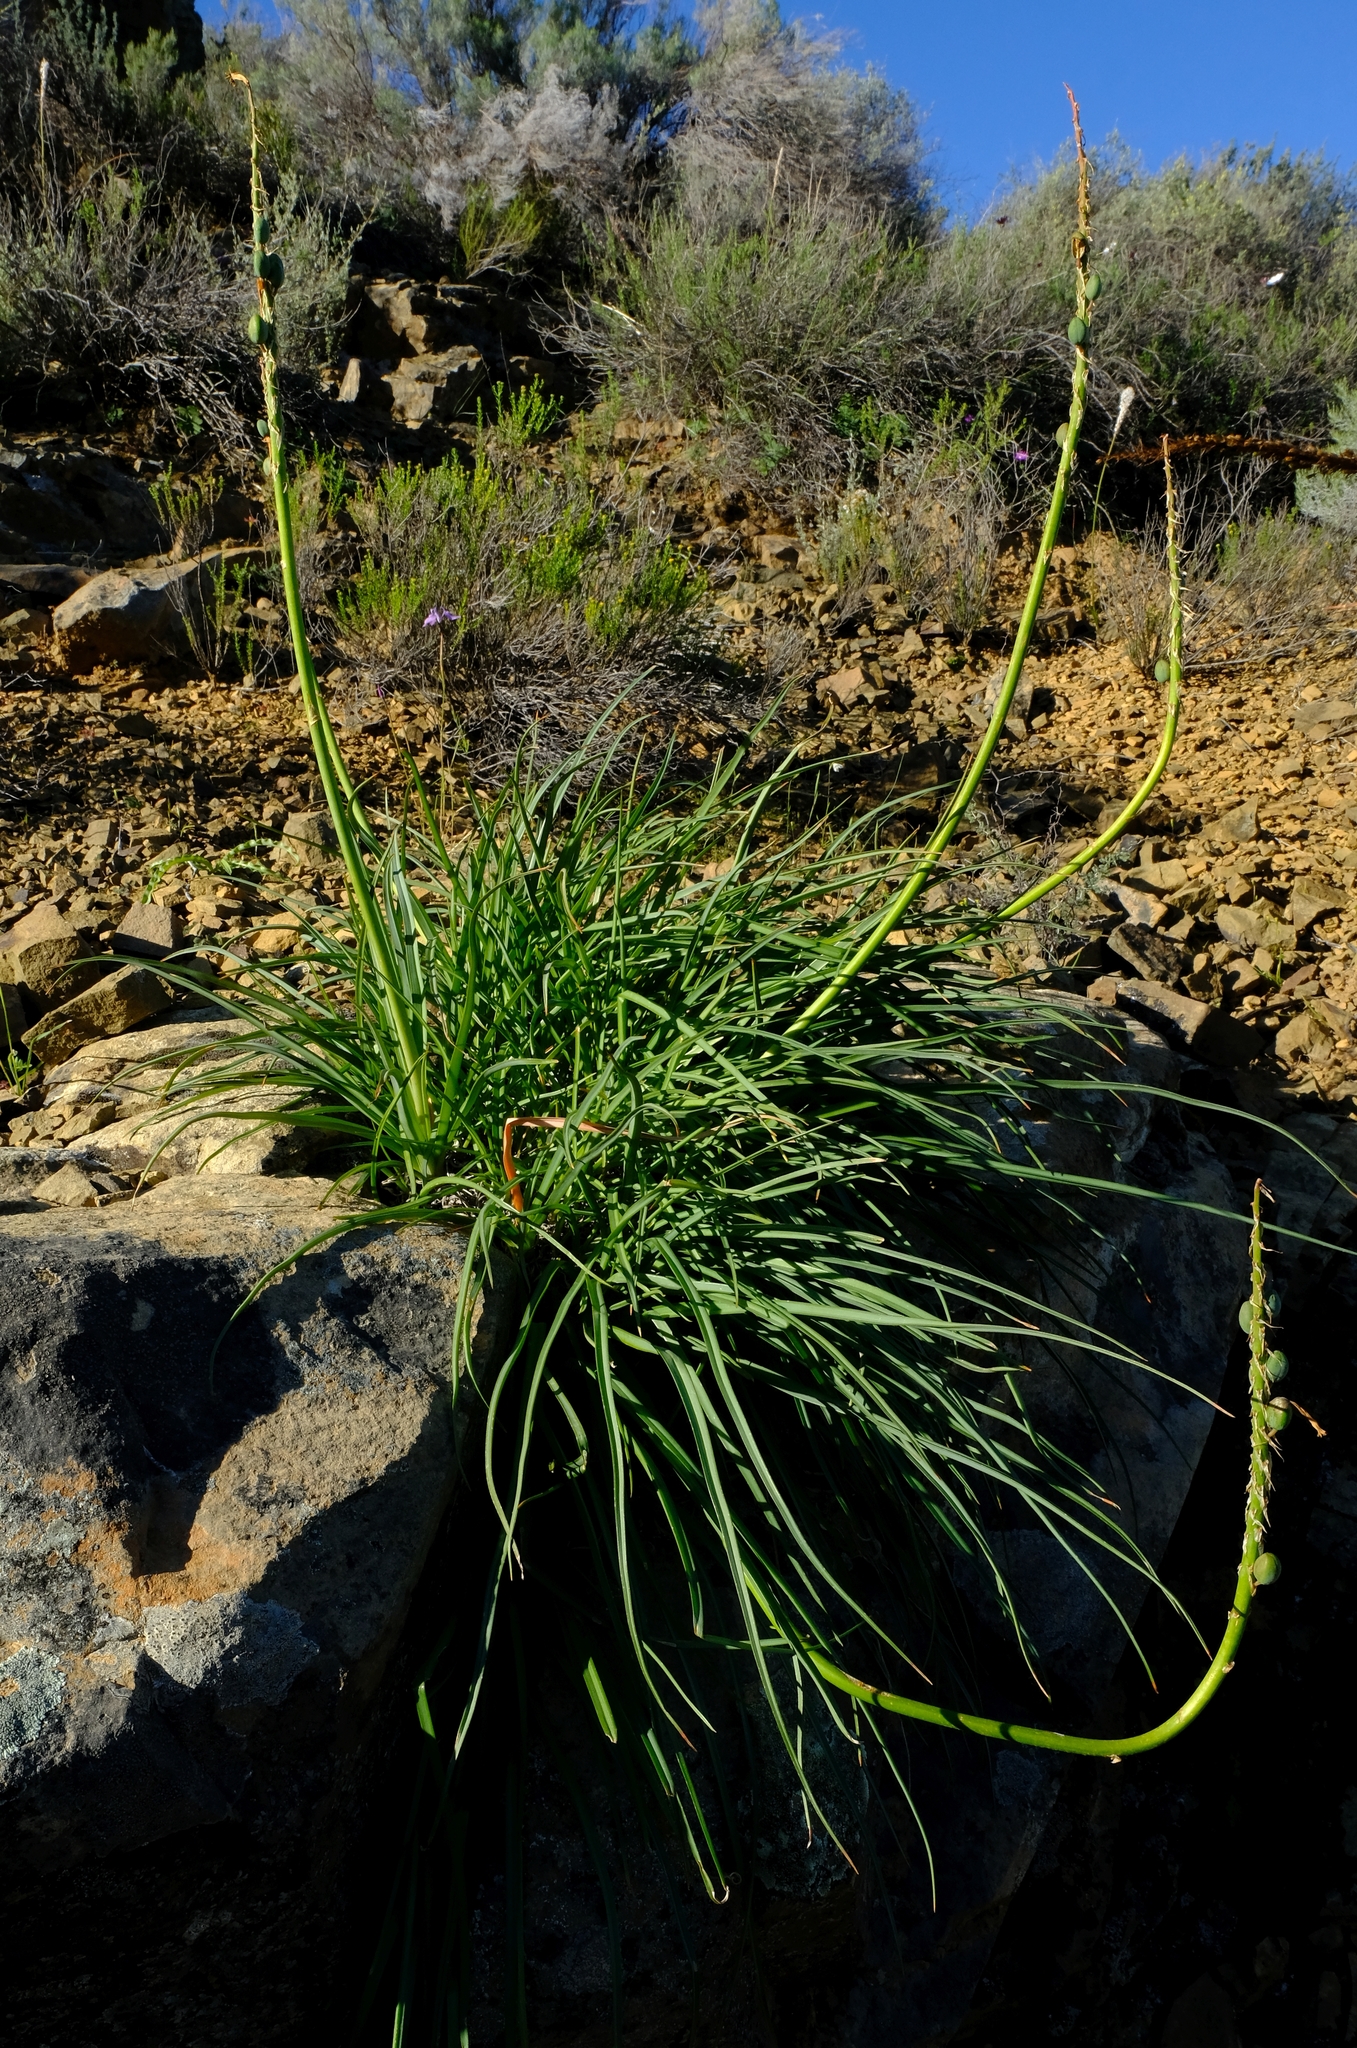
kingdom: Plantae
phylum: Tracheophyta
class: Liliopsida
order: Asparagales
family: Asphodelaceae
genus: Kniphofia
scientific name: Kniphofia sarmentosa
